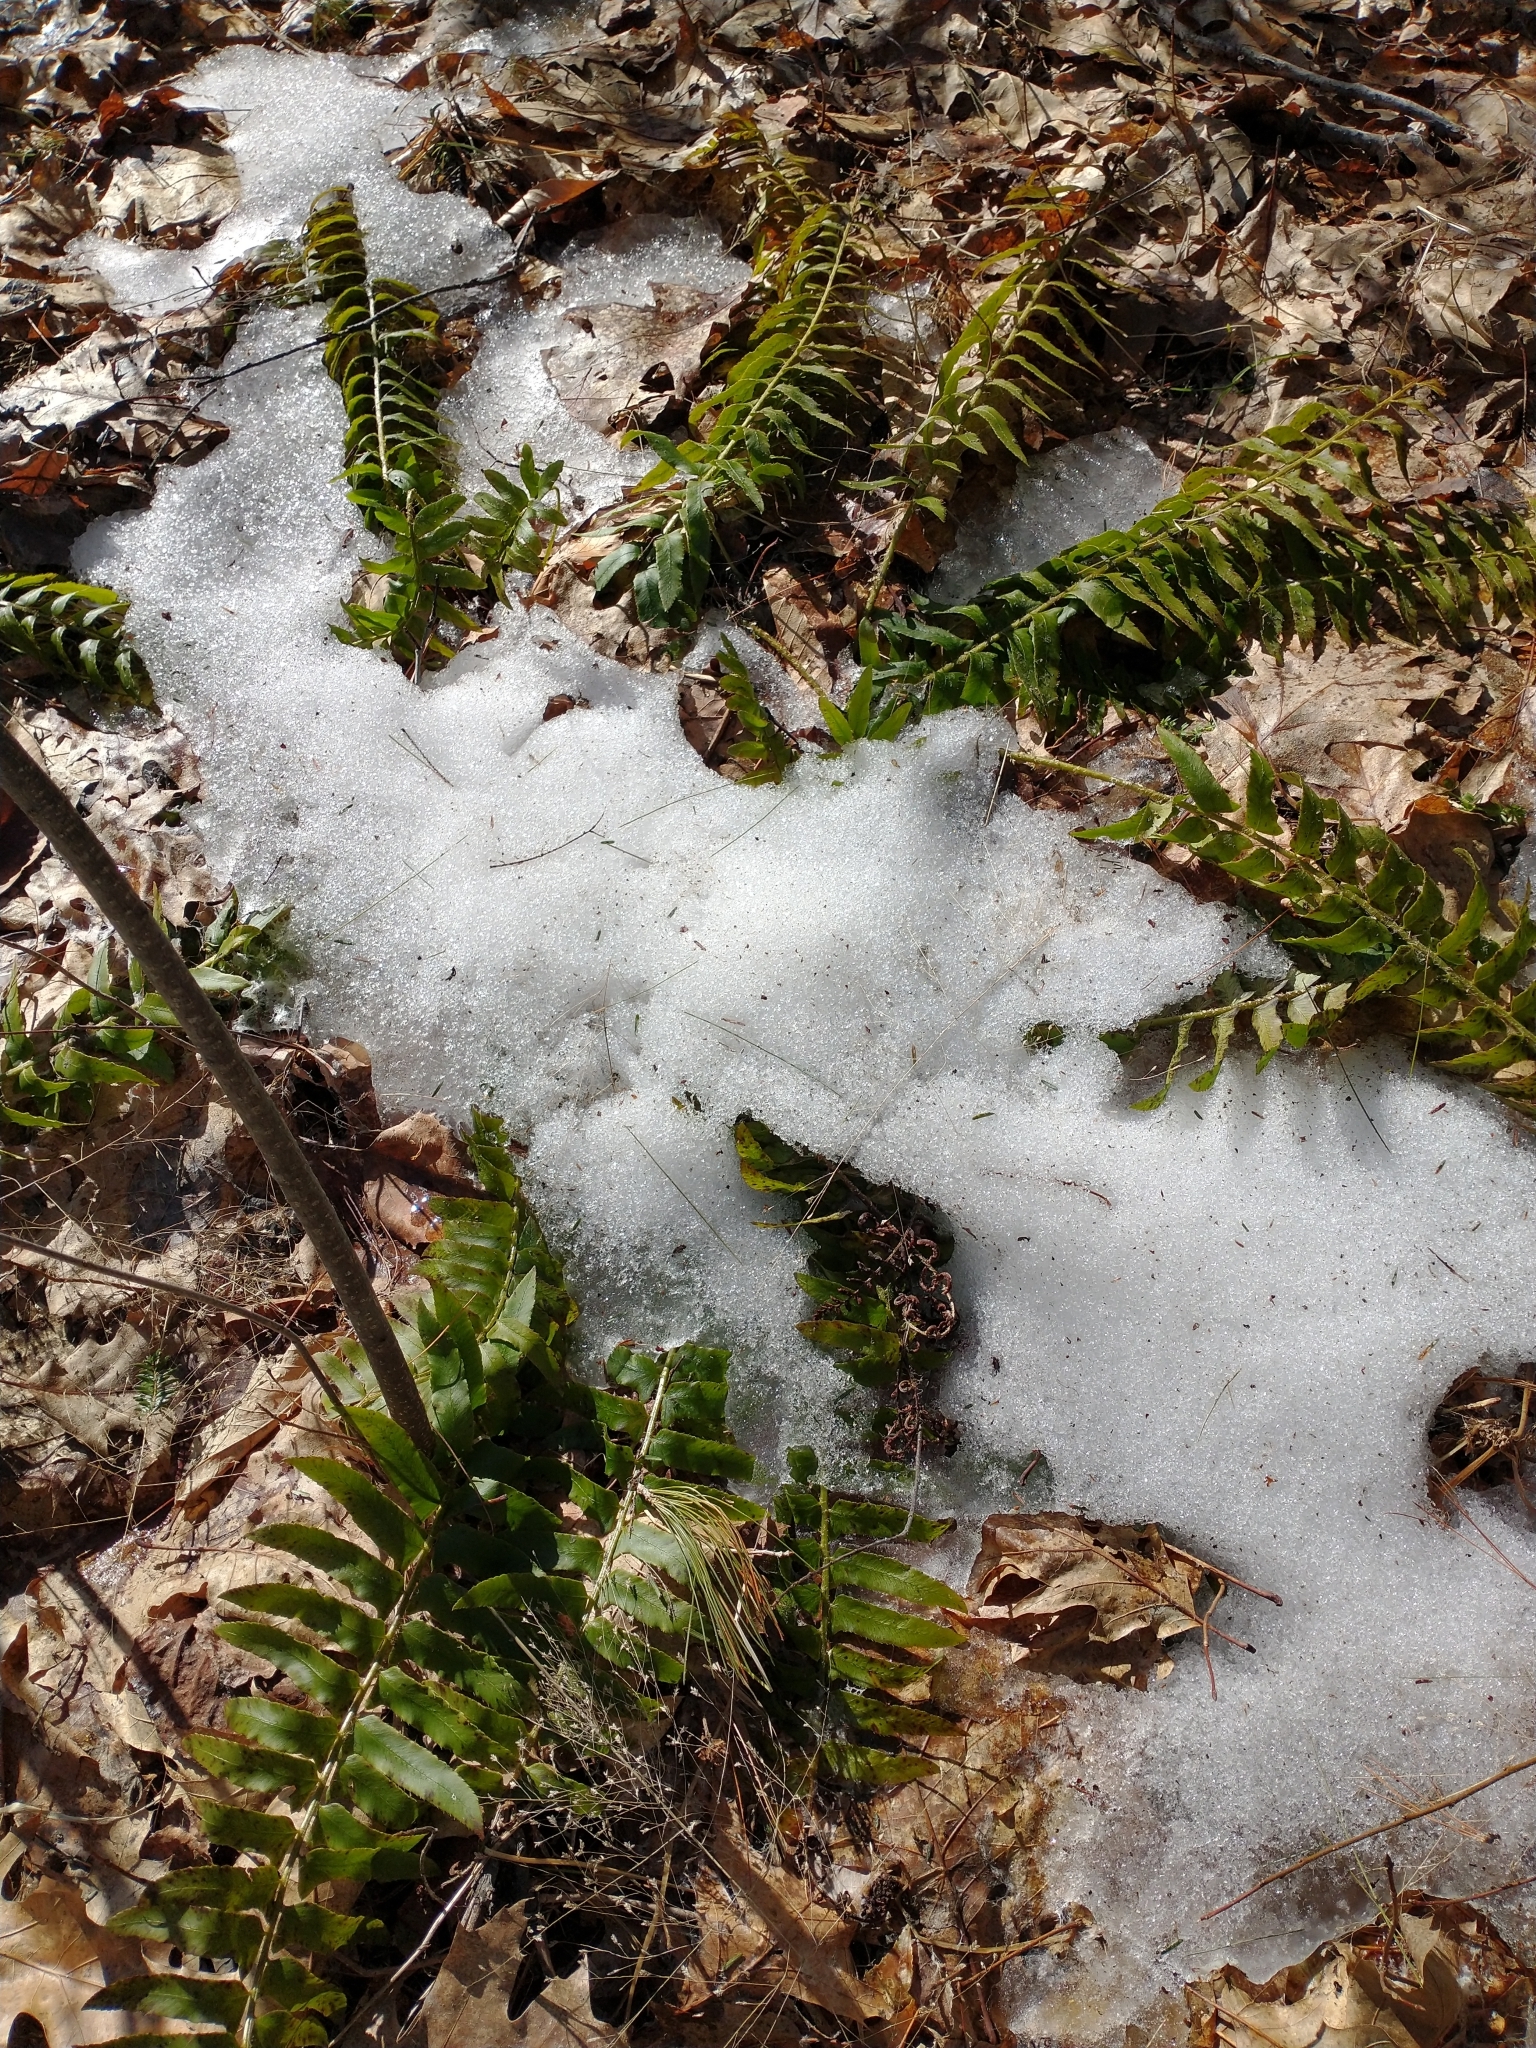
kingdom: Plantae
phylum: Tracheophyta
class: Polypodiopsida
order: Polypodiales
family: Dryopteridaceae
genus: Polystichum
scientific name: Polystichum acrostichoides
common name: Christmas fern
